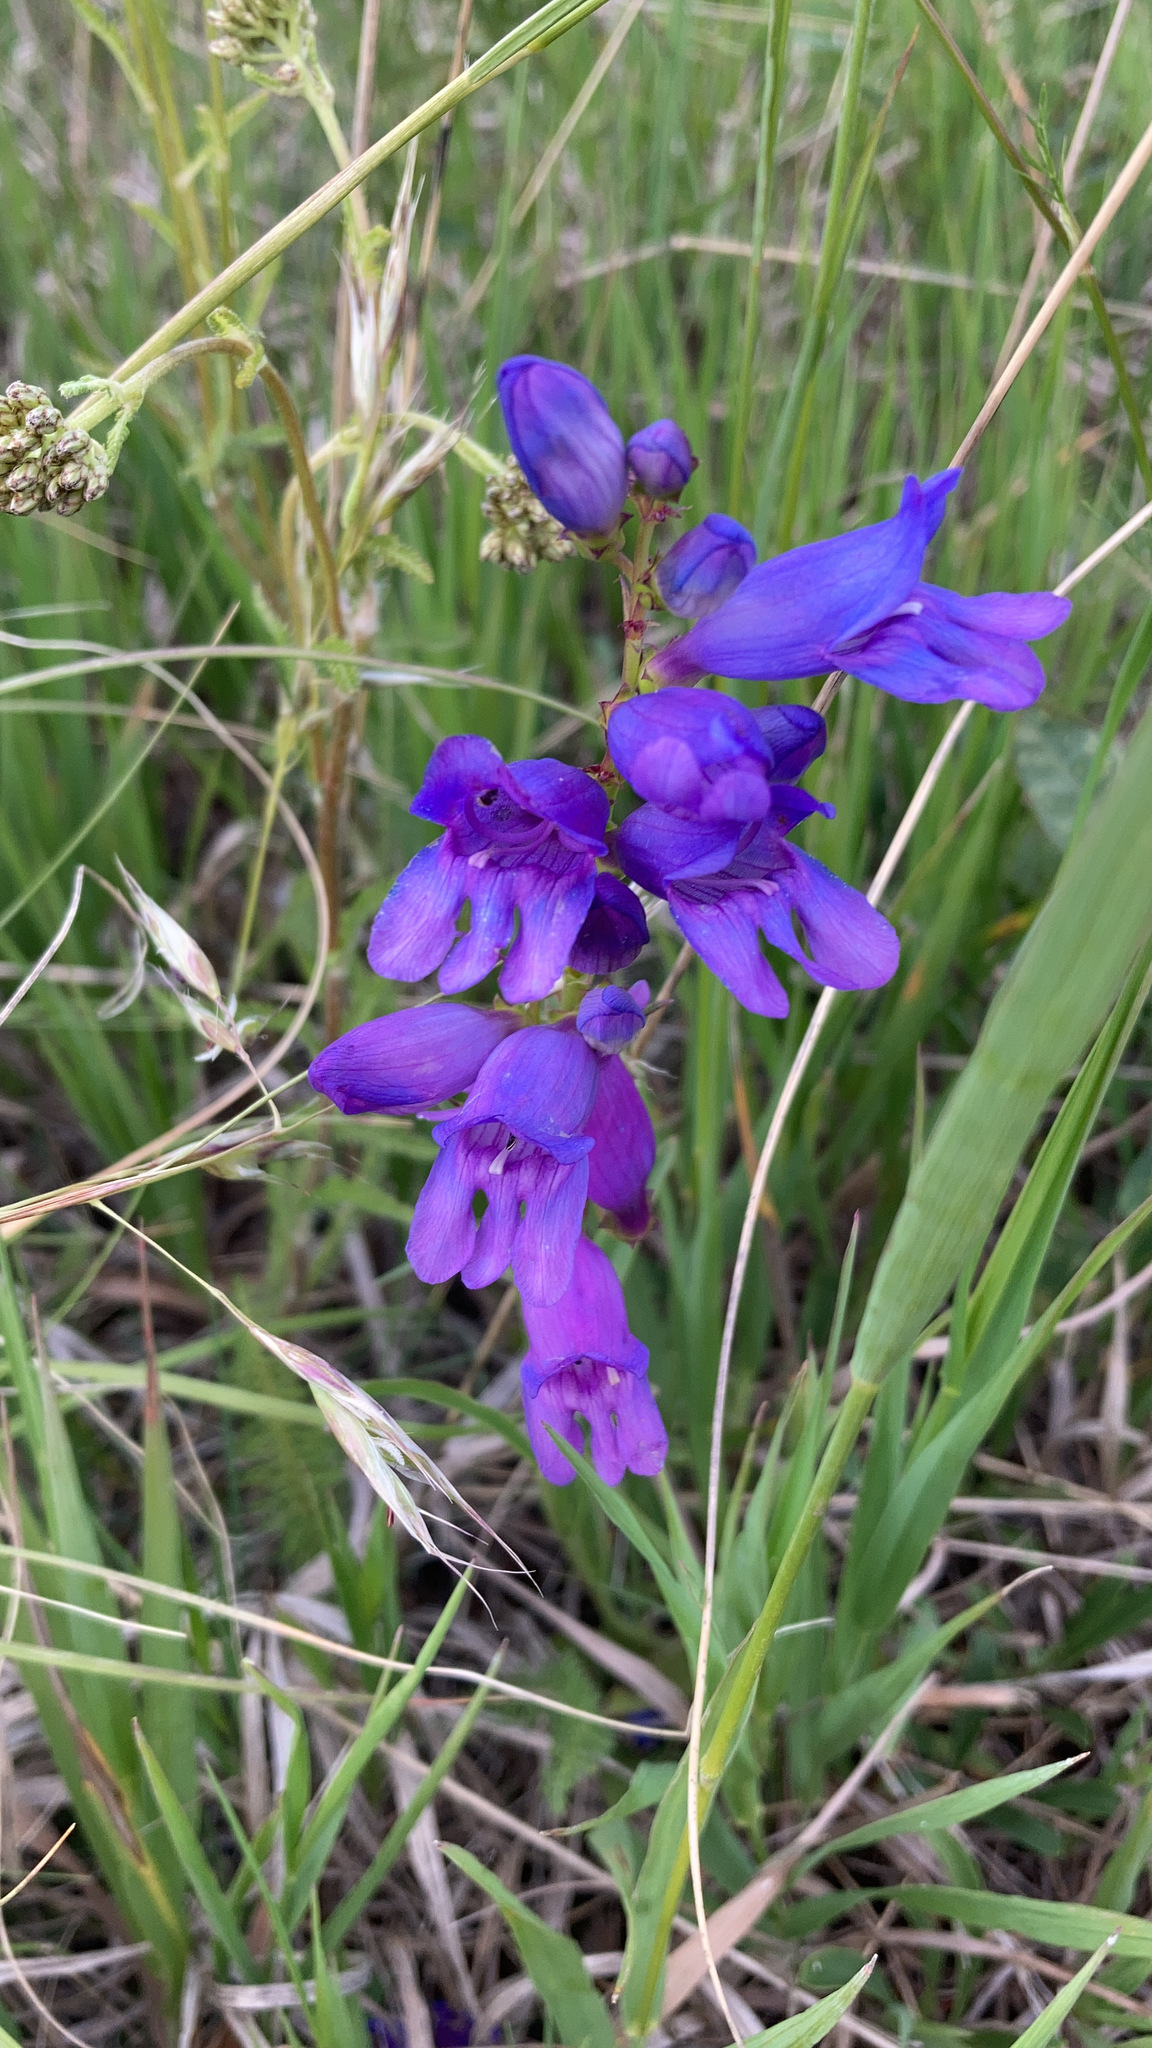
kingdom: Plantae
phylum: Tracheophyta
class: Magnoliopsida
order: Lamiales
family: Plantaginaceae
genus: Penstemon
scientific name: Penstemon strictus
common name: Rocky mountain penstemon
